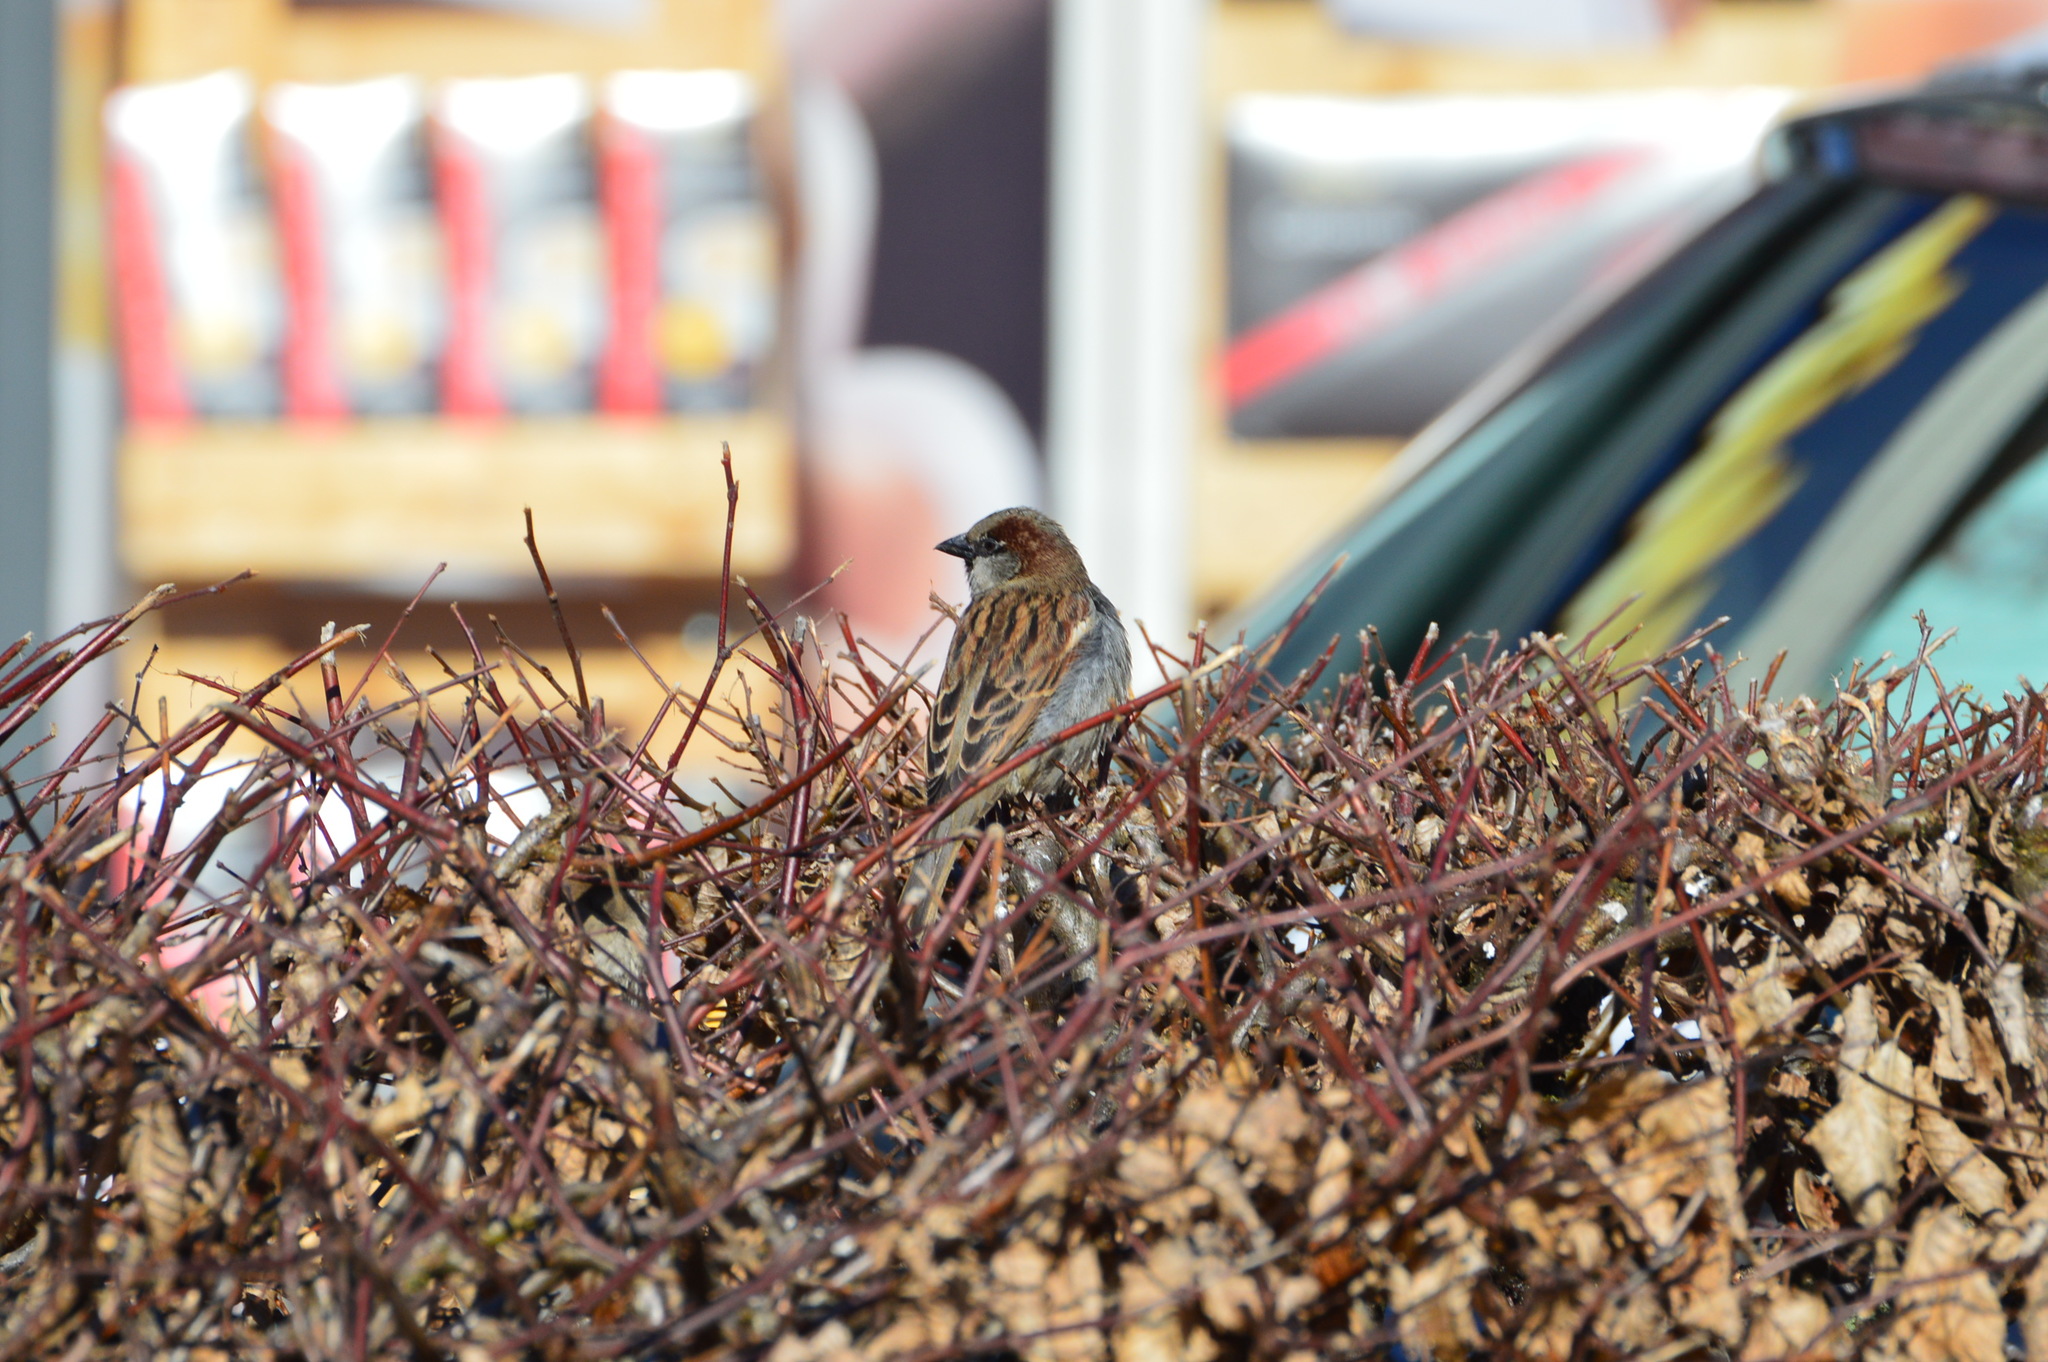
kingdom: Animalia
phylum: Chordata
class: Aves
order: Passeriformes
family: Passeridae
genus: Passer
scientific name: Passer domesticus
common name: House sparrow
